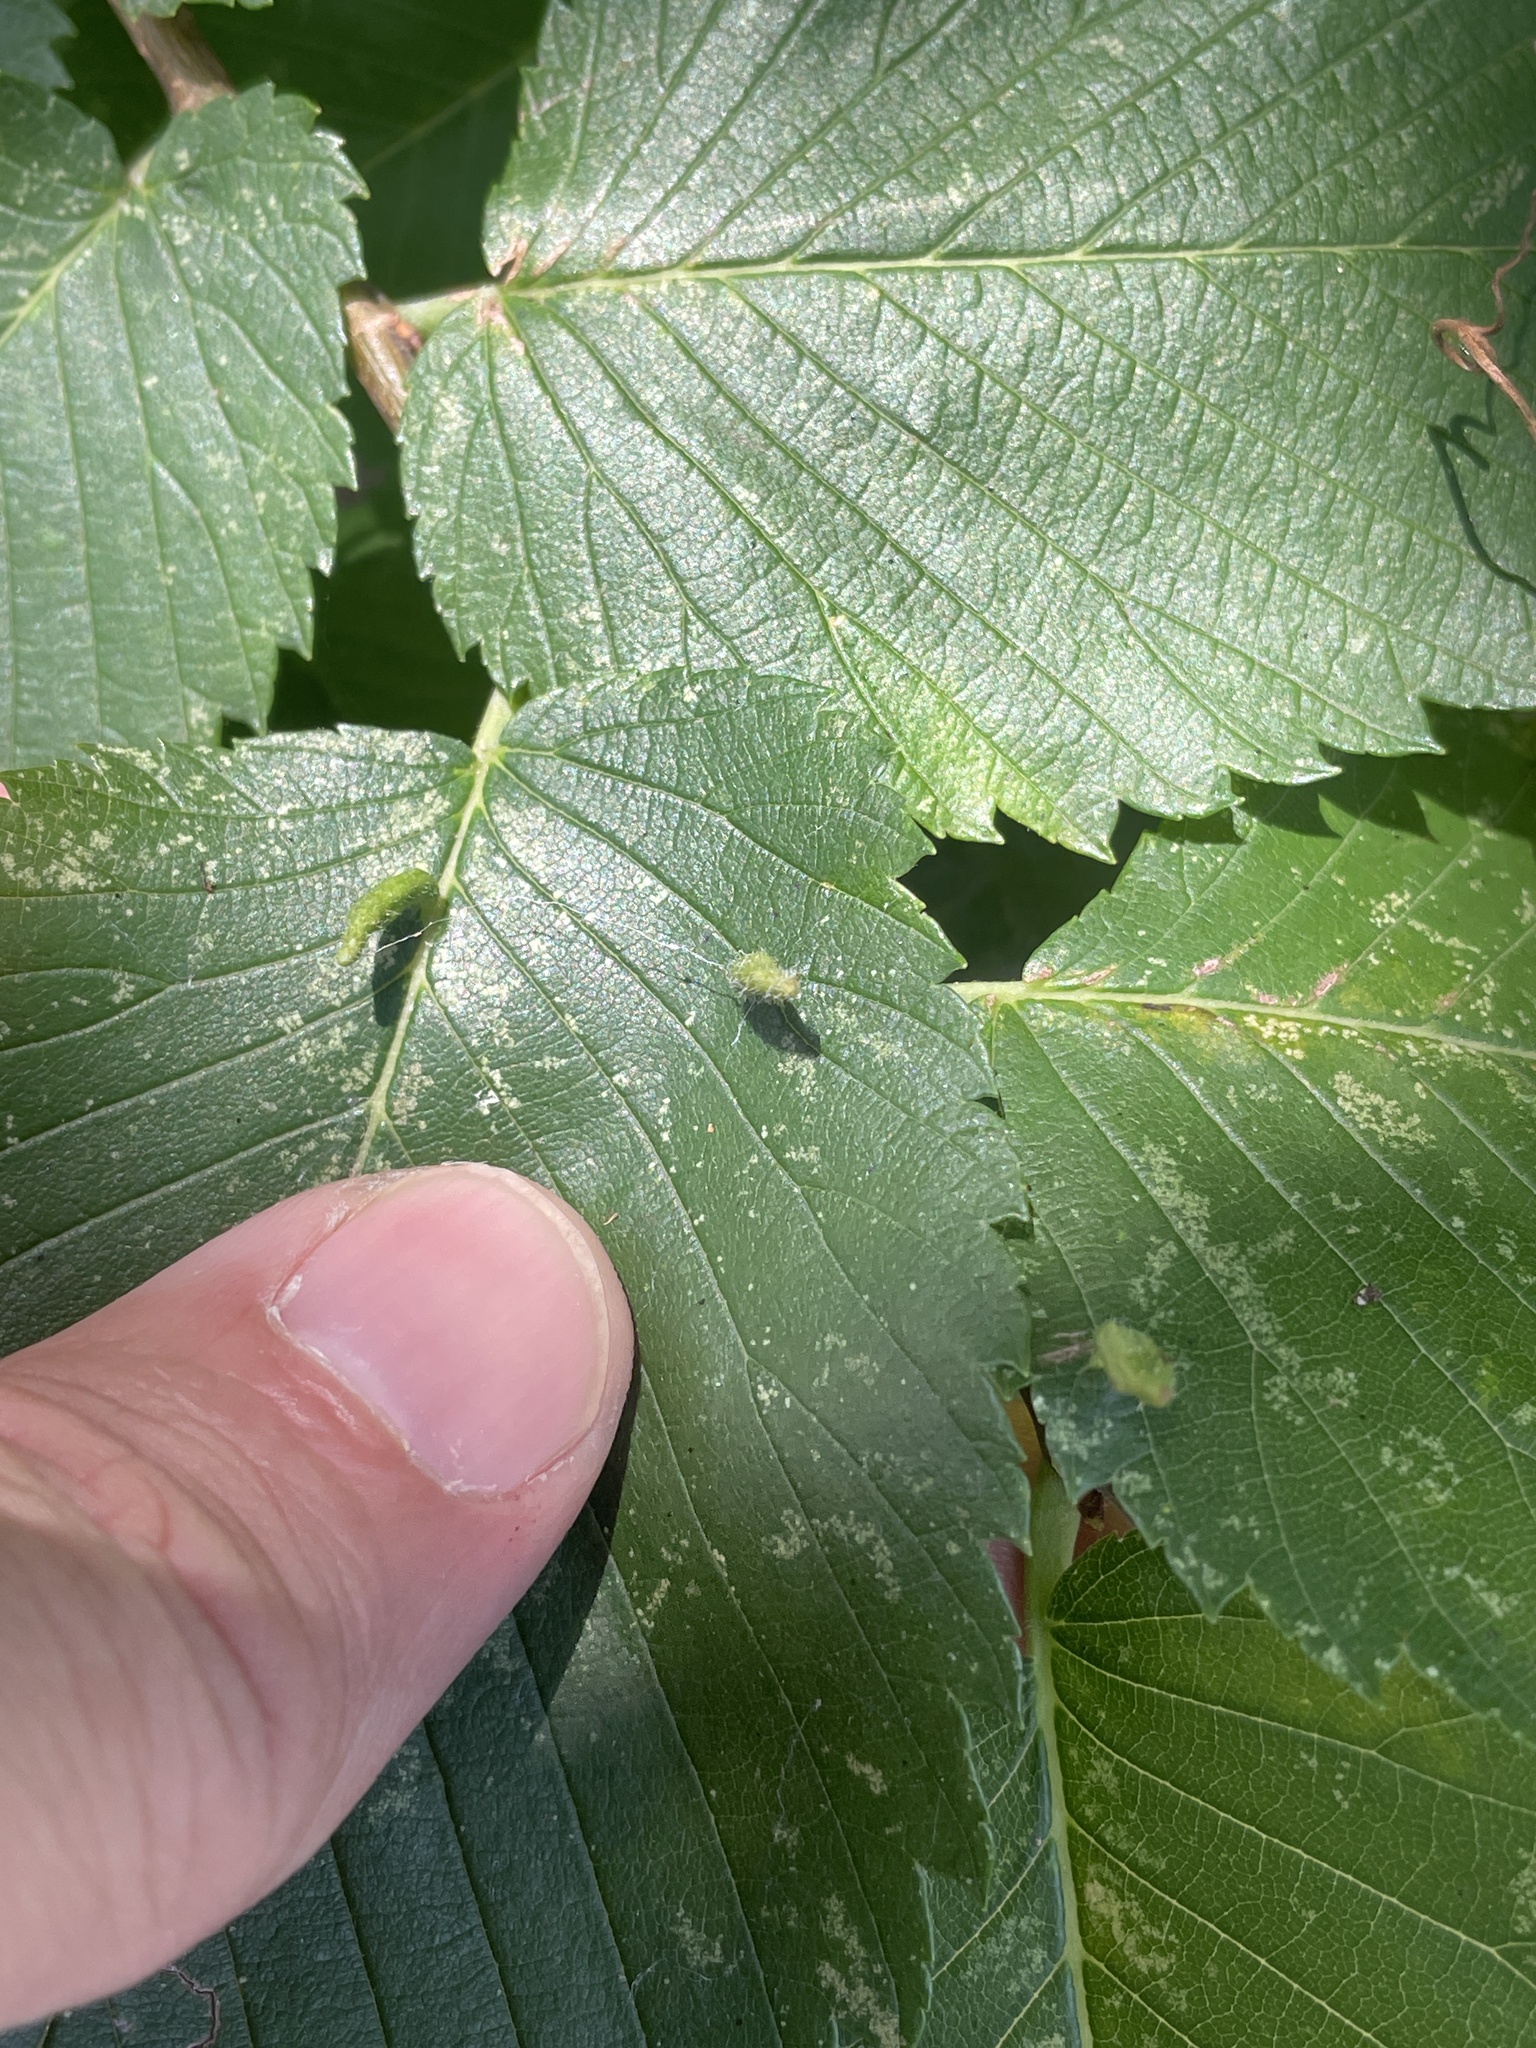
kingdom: Animalia
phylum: Arthropoda
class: Arachnida
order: Trombidiformes
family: Eriophyidae
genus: Aceria
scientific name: Aceria
